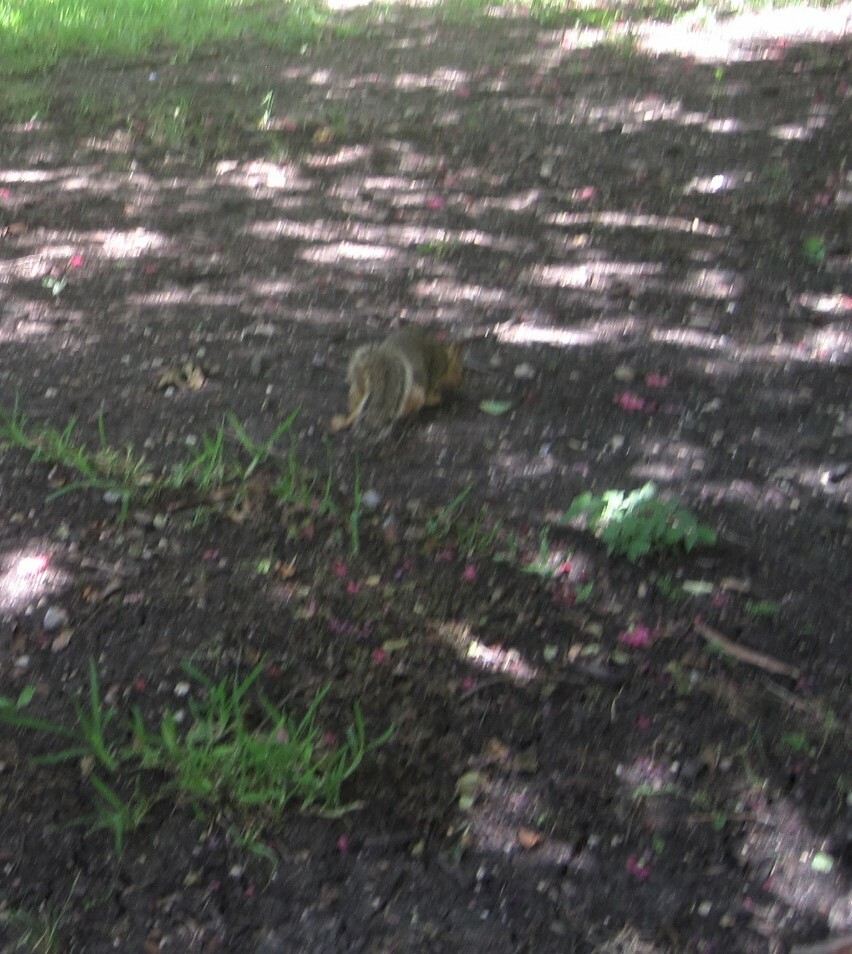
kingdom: Animalia
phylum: Chordata
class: Mammalia
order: Rodentia
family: Sciuridae
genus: Sciurus
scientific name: Sciurus niger
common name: Fox squirrel
